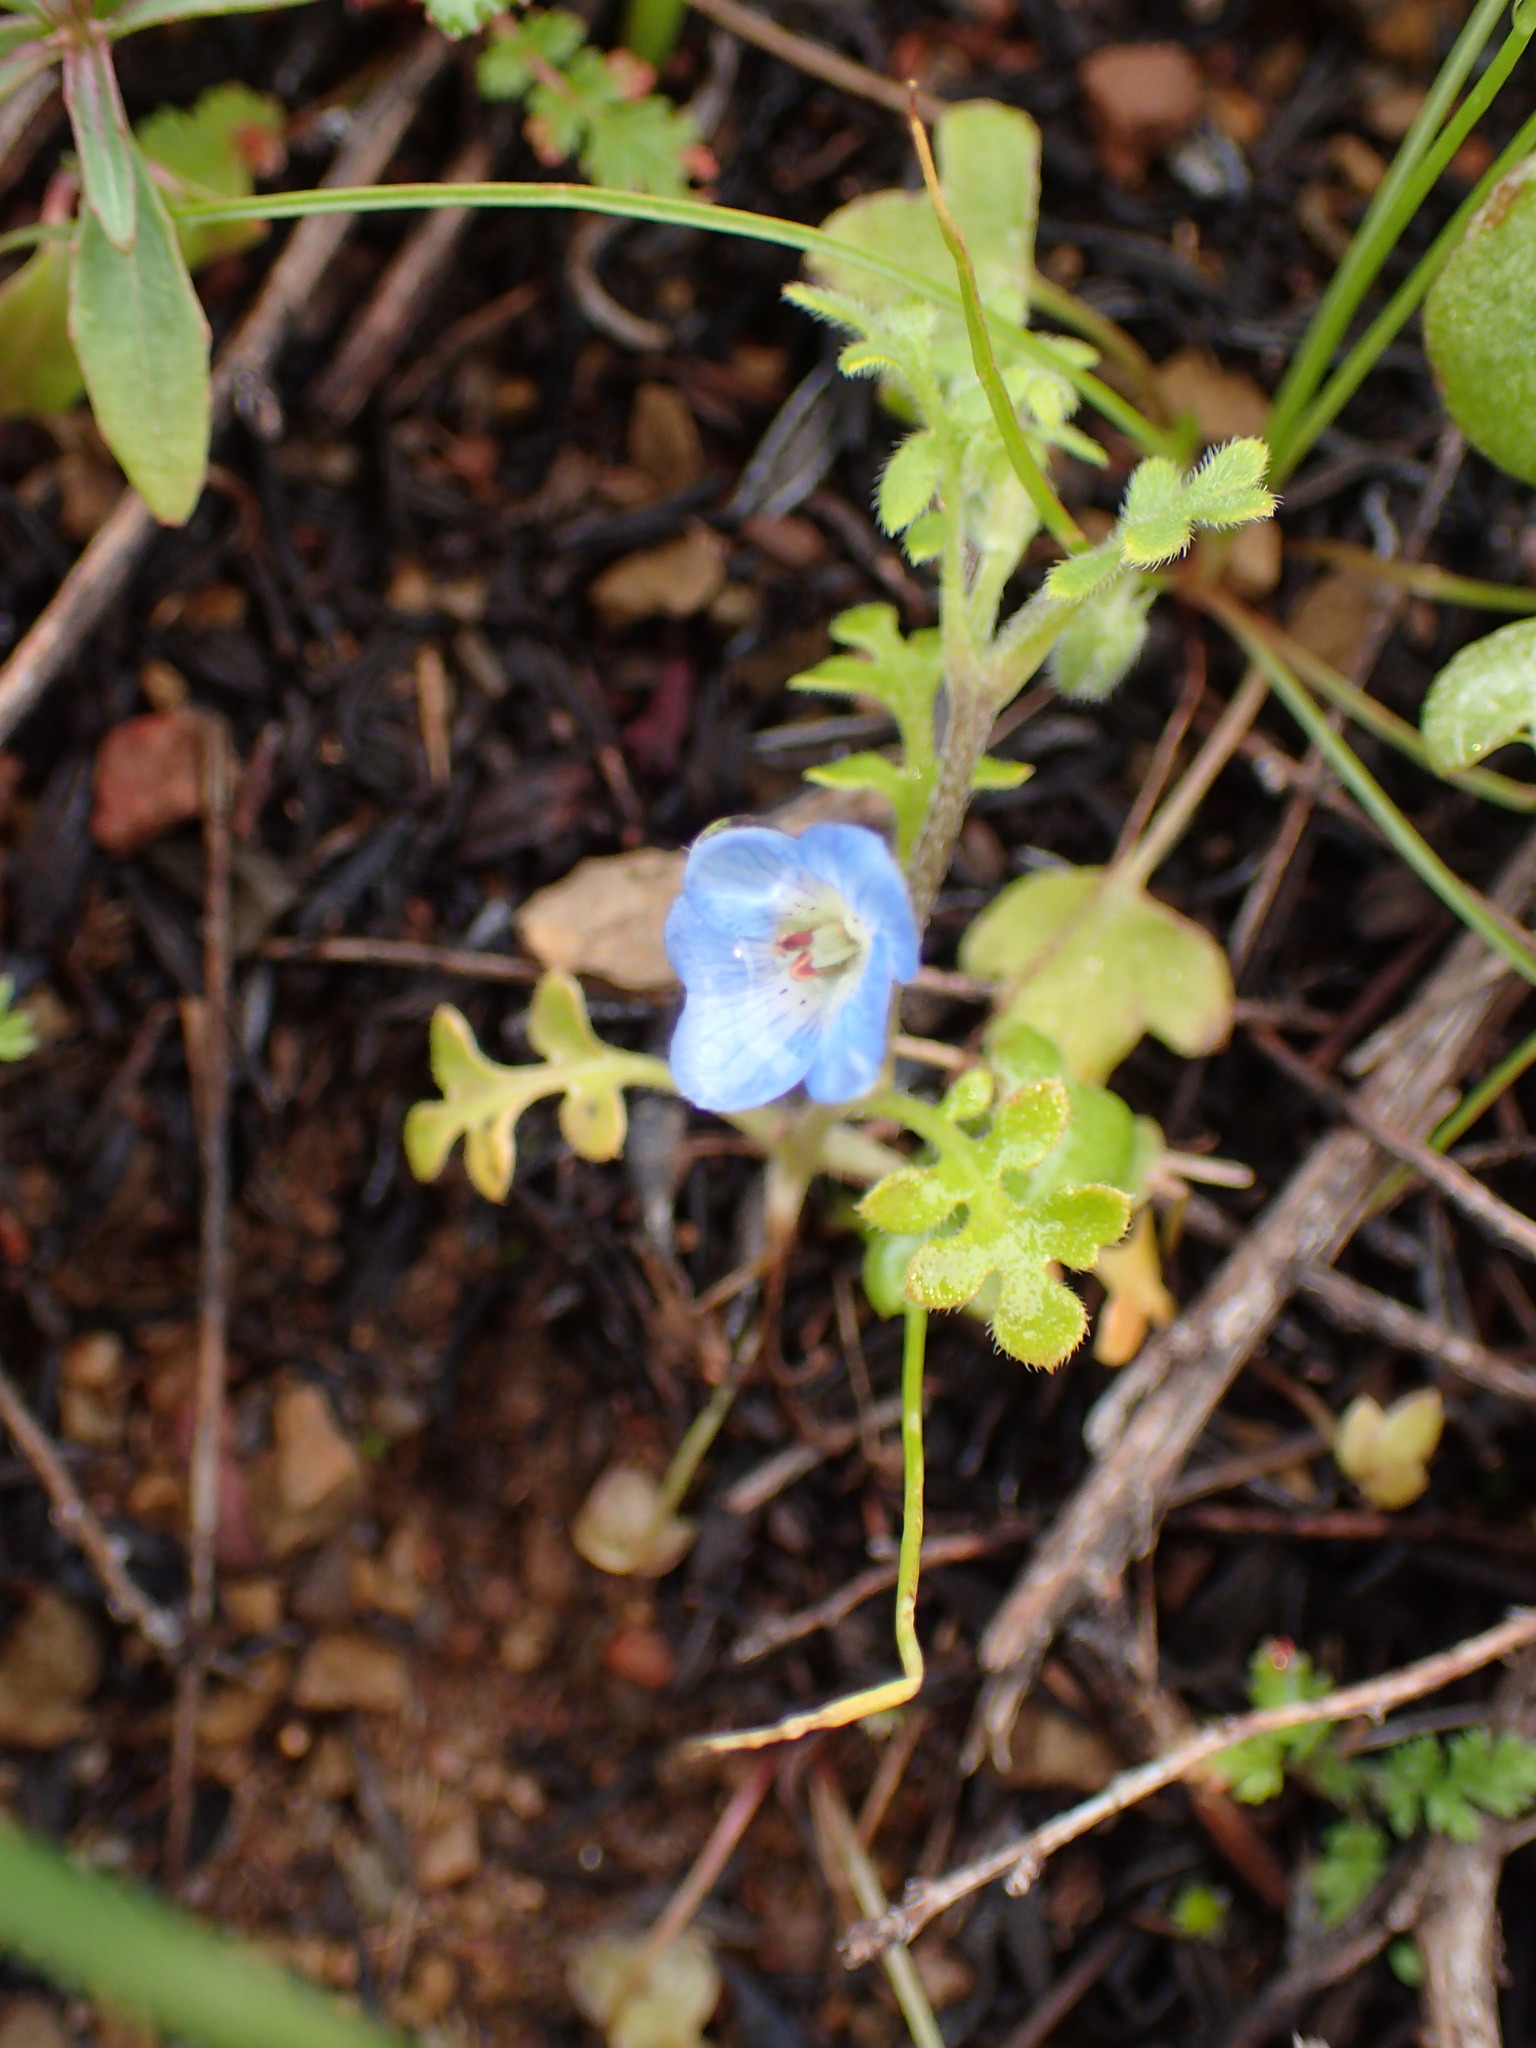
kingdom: Plantae
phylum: Tracheophyta
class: Magnoliopsida
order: Boraginales
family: Hydrophyllaceae
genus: Nemophila
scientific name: Nemophila menziesii
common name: Baby's-blue-eyes
